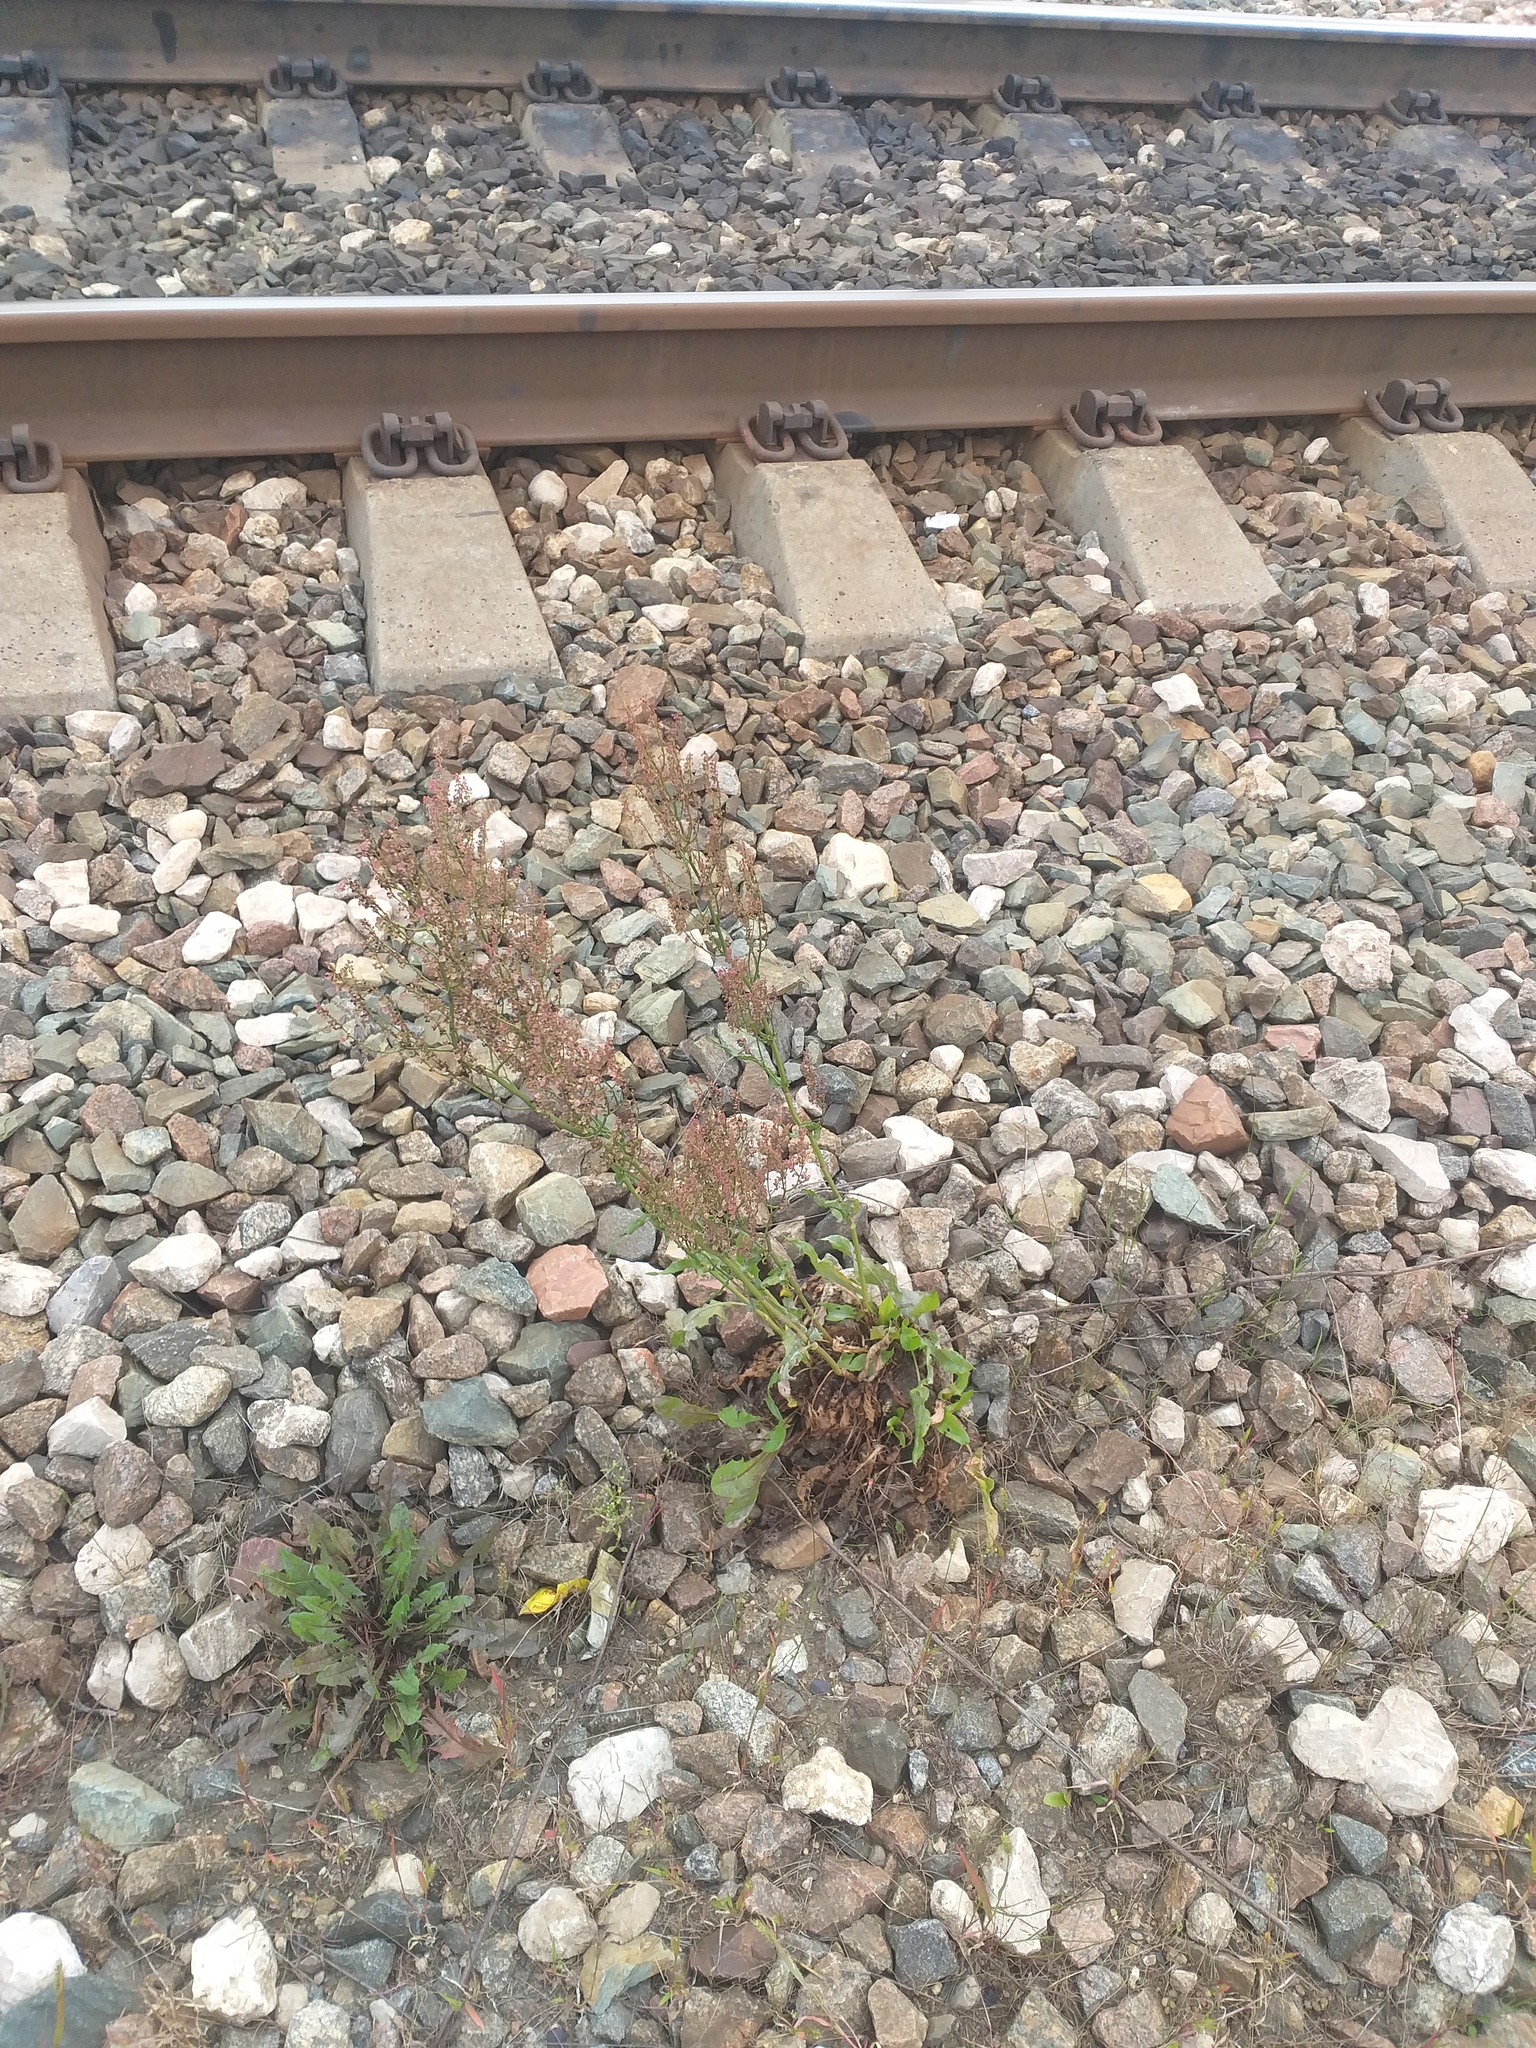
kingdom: Plantae
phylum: Tracheophyta
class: Magnoliopsida
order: Caryophyllales
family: Polygonaceae
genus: Rumex
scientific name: Rumex thyrsiflorus
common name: Garden sorrel
